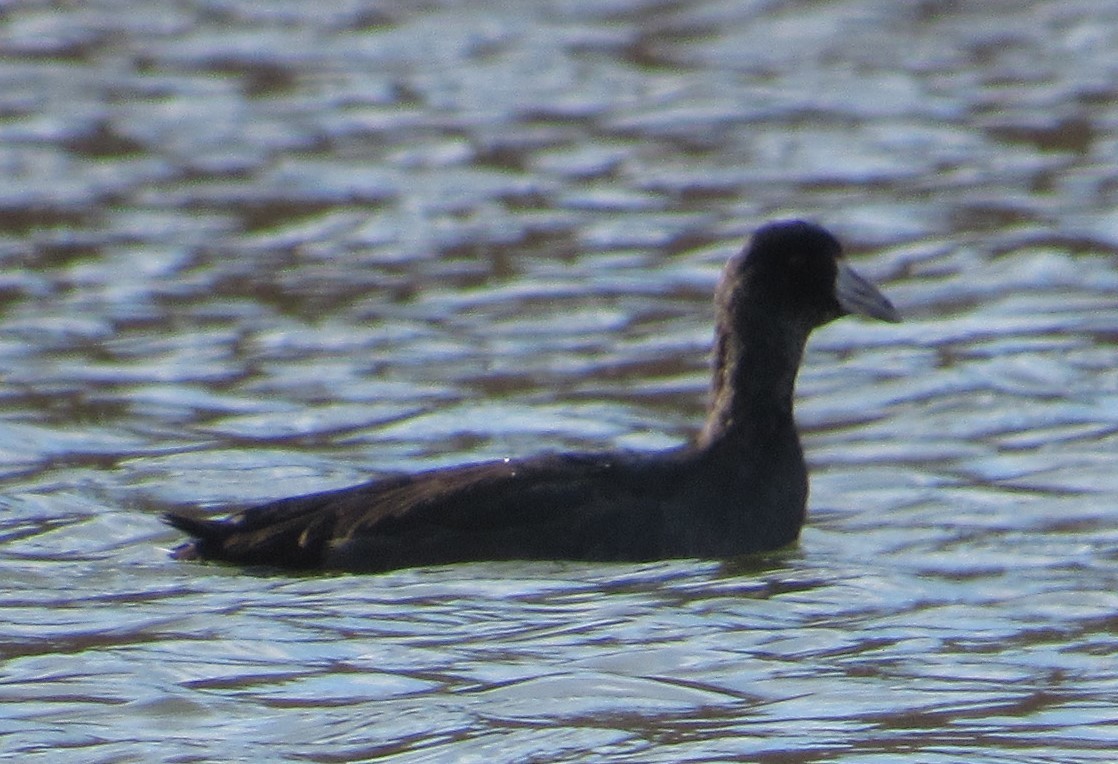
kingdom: Animalia
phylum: Chordata
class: Aves
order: Gruiformes
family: Rallidae
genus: Fulica
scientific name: Fulica americana
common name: American coot
